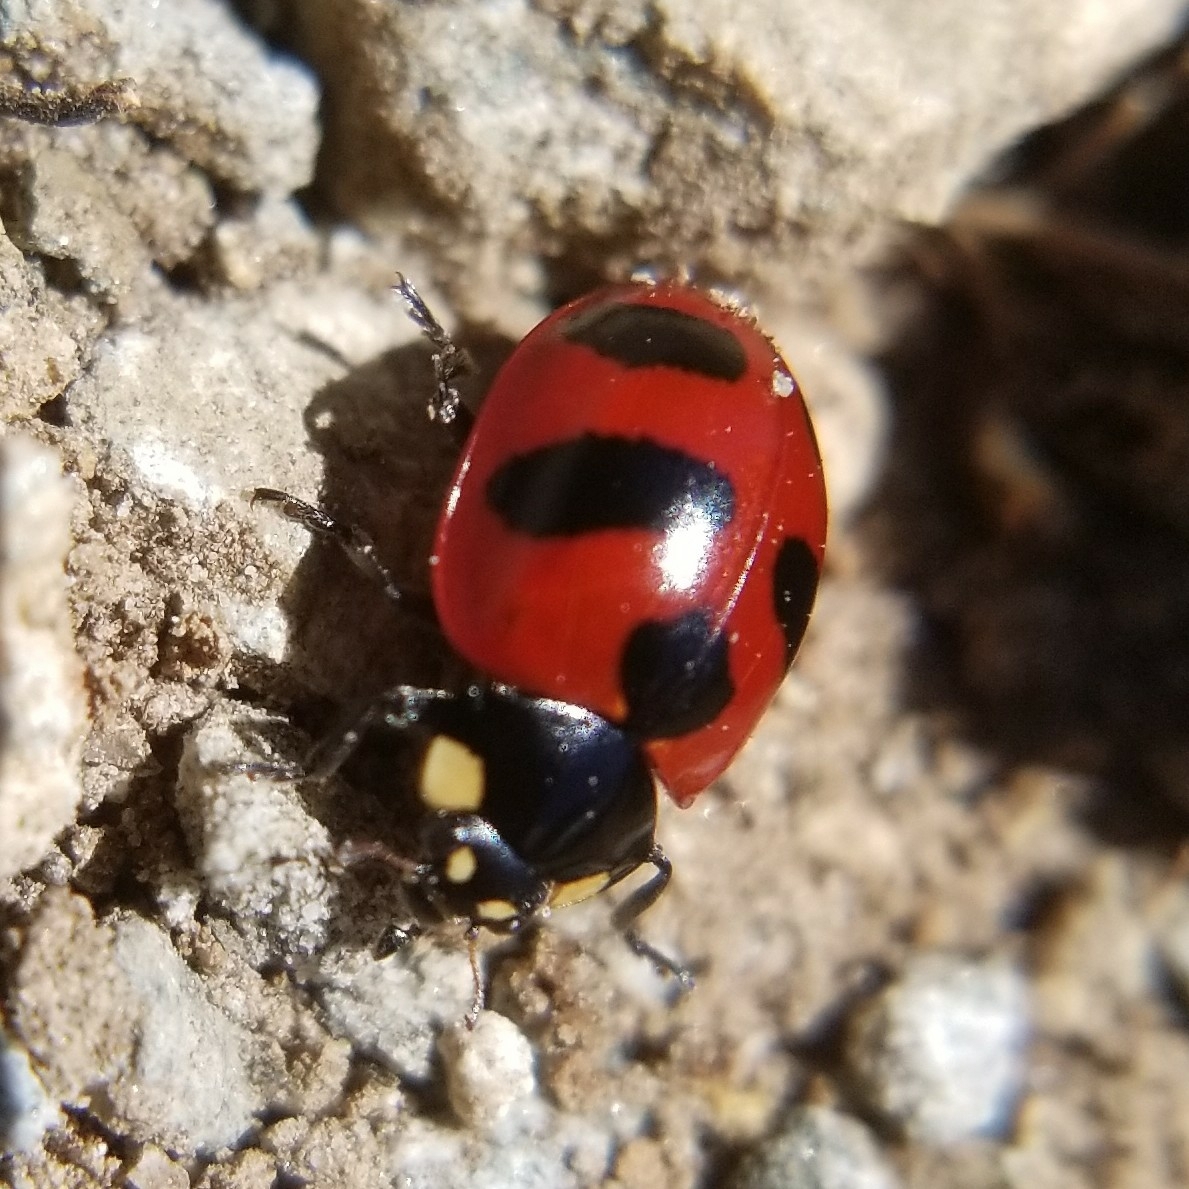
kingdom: Animalia
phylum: Arthropoda
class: Insecta
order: Coleoptera
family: Coccinellidae
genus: Coccinella
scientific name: Coccinella monticola
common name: Mountain lady beetle
